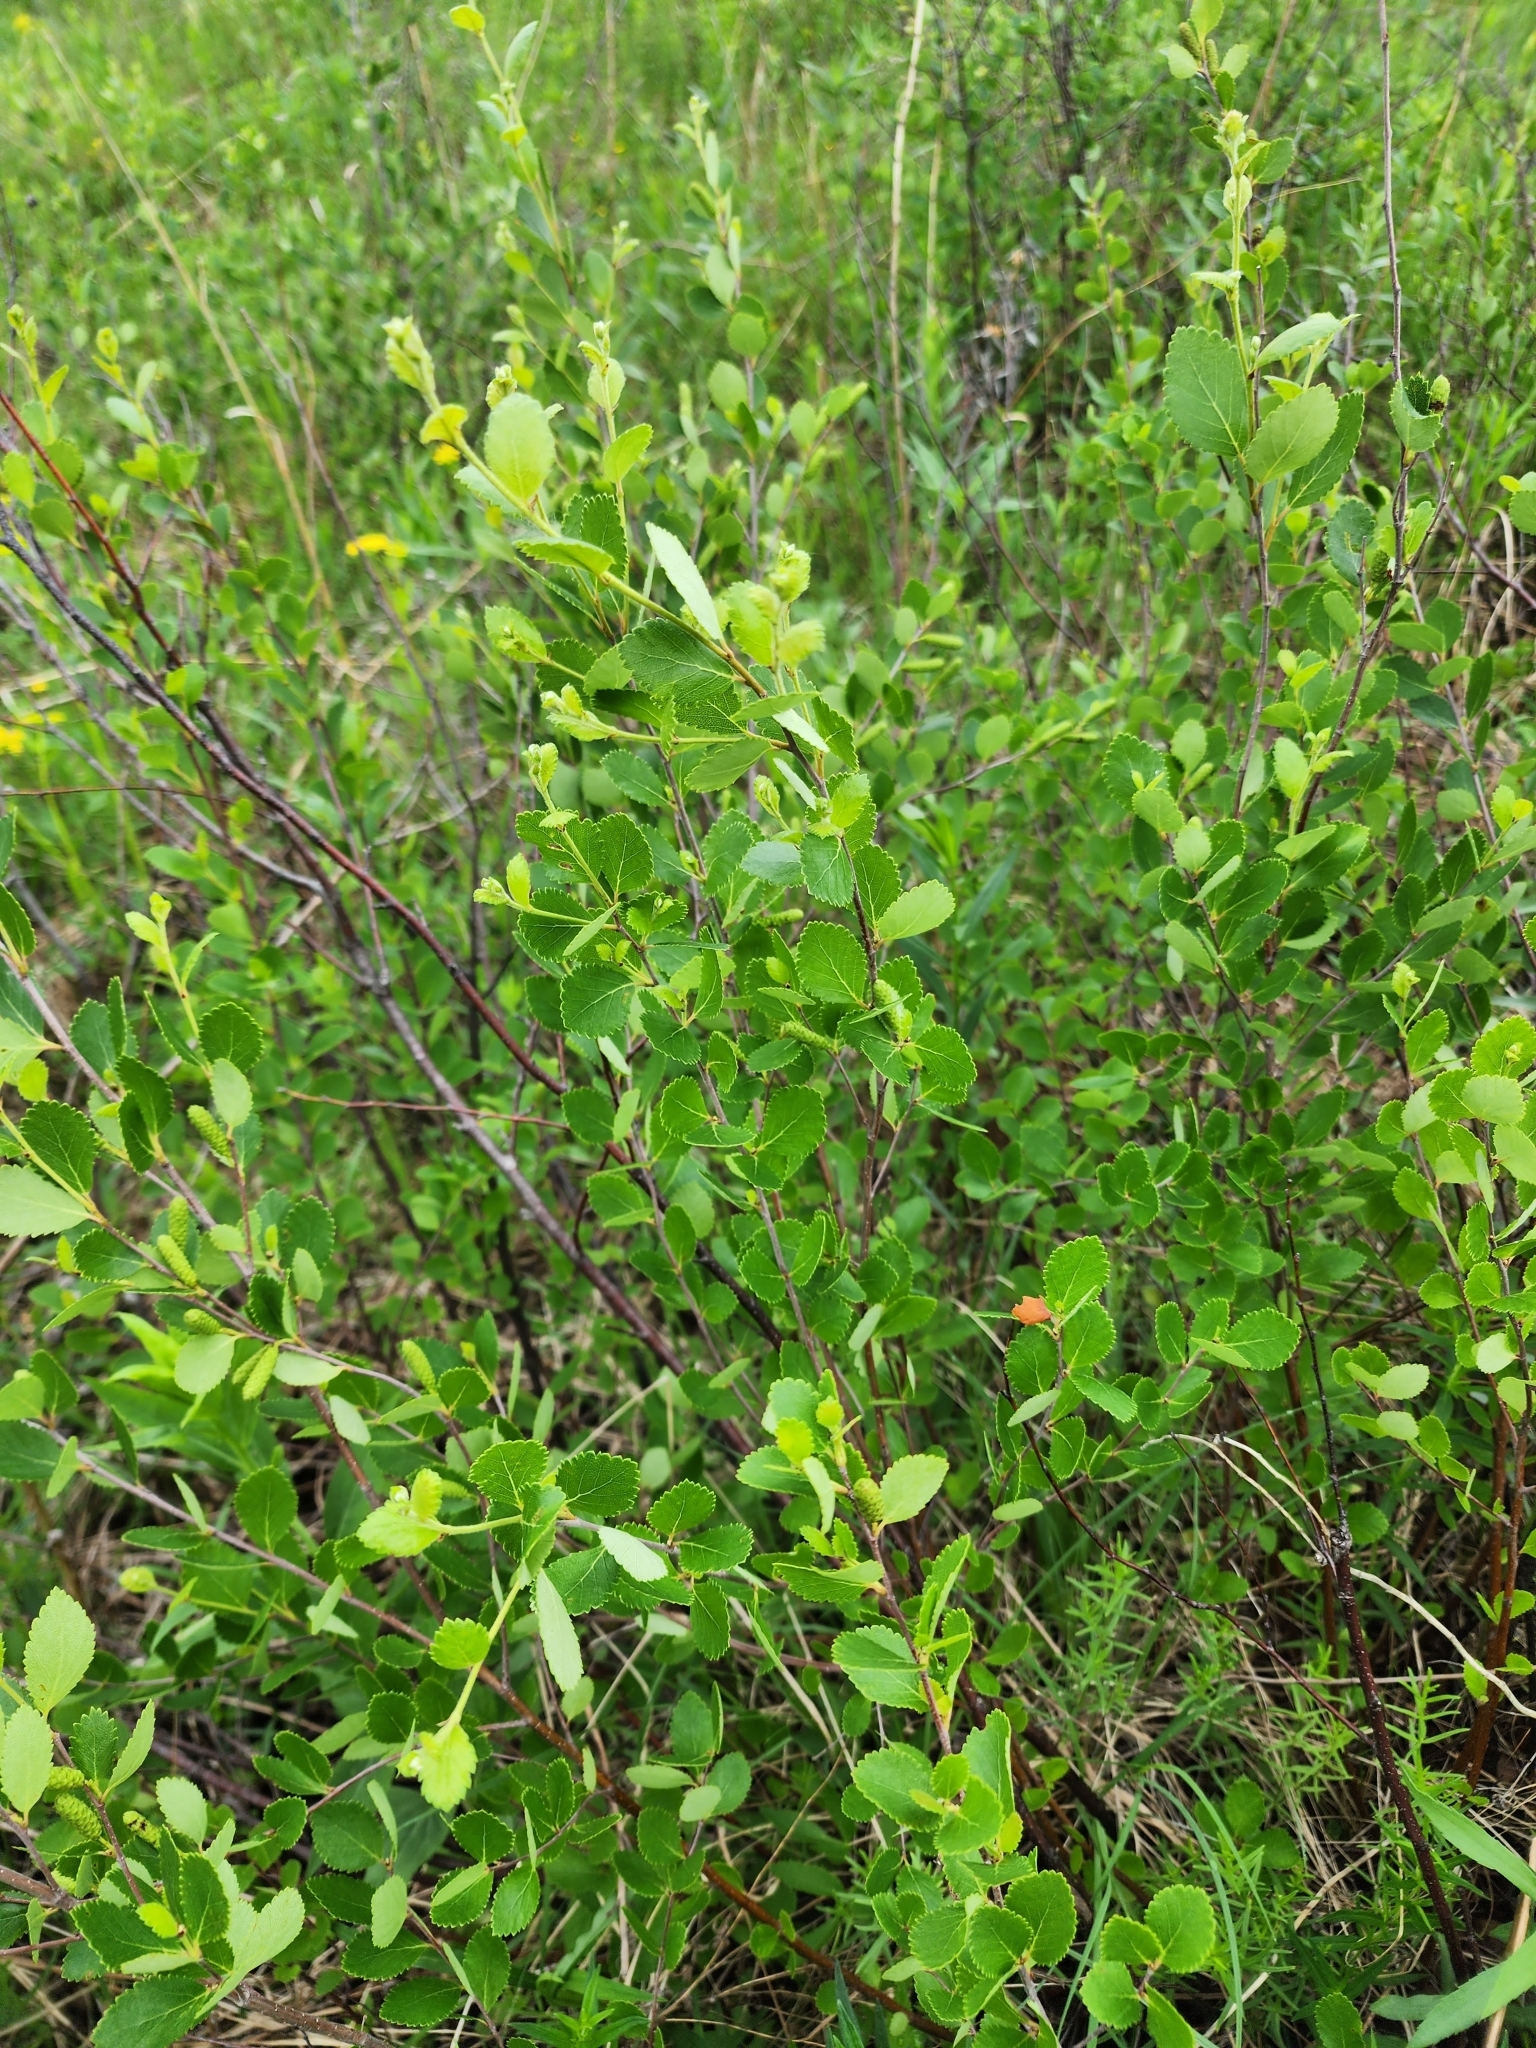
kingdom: Plantae
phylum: Tracheophyta
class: Magnoliopsida
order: Fagales
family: Betulaceae
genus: Betula
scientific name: Betula pumila
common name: Bog birch
